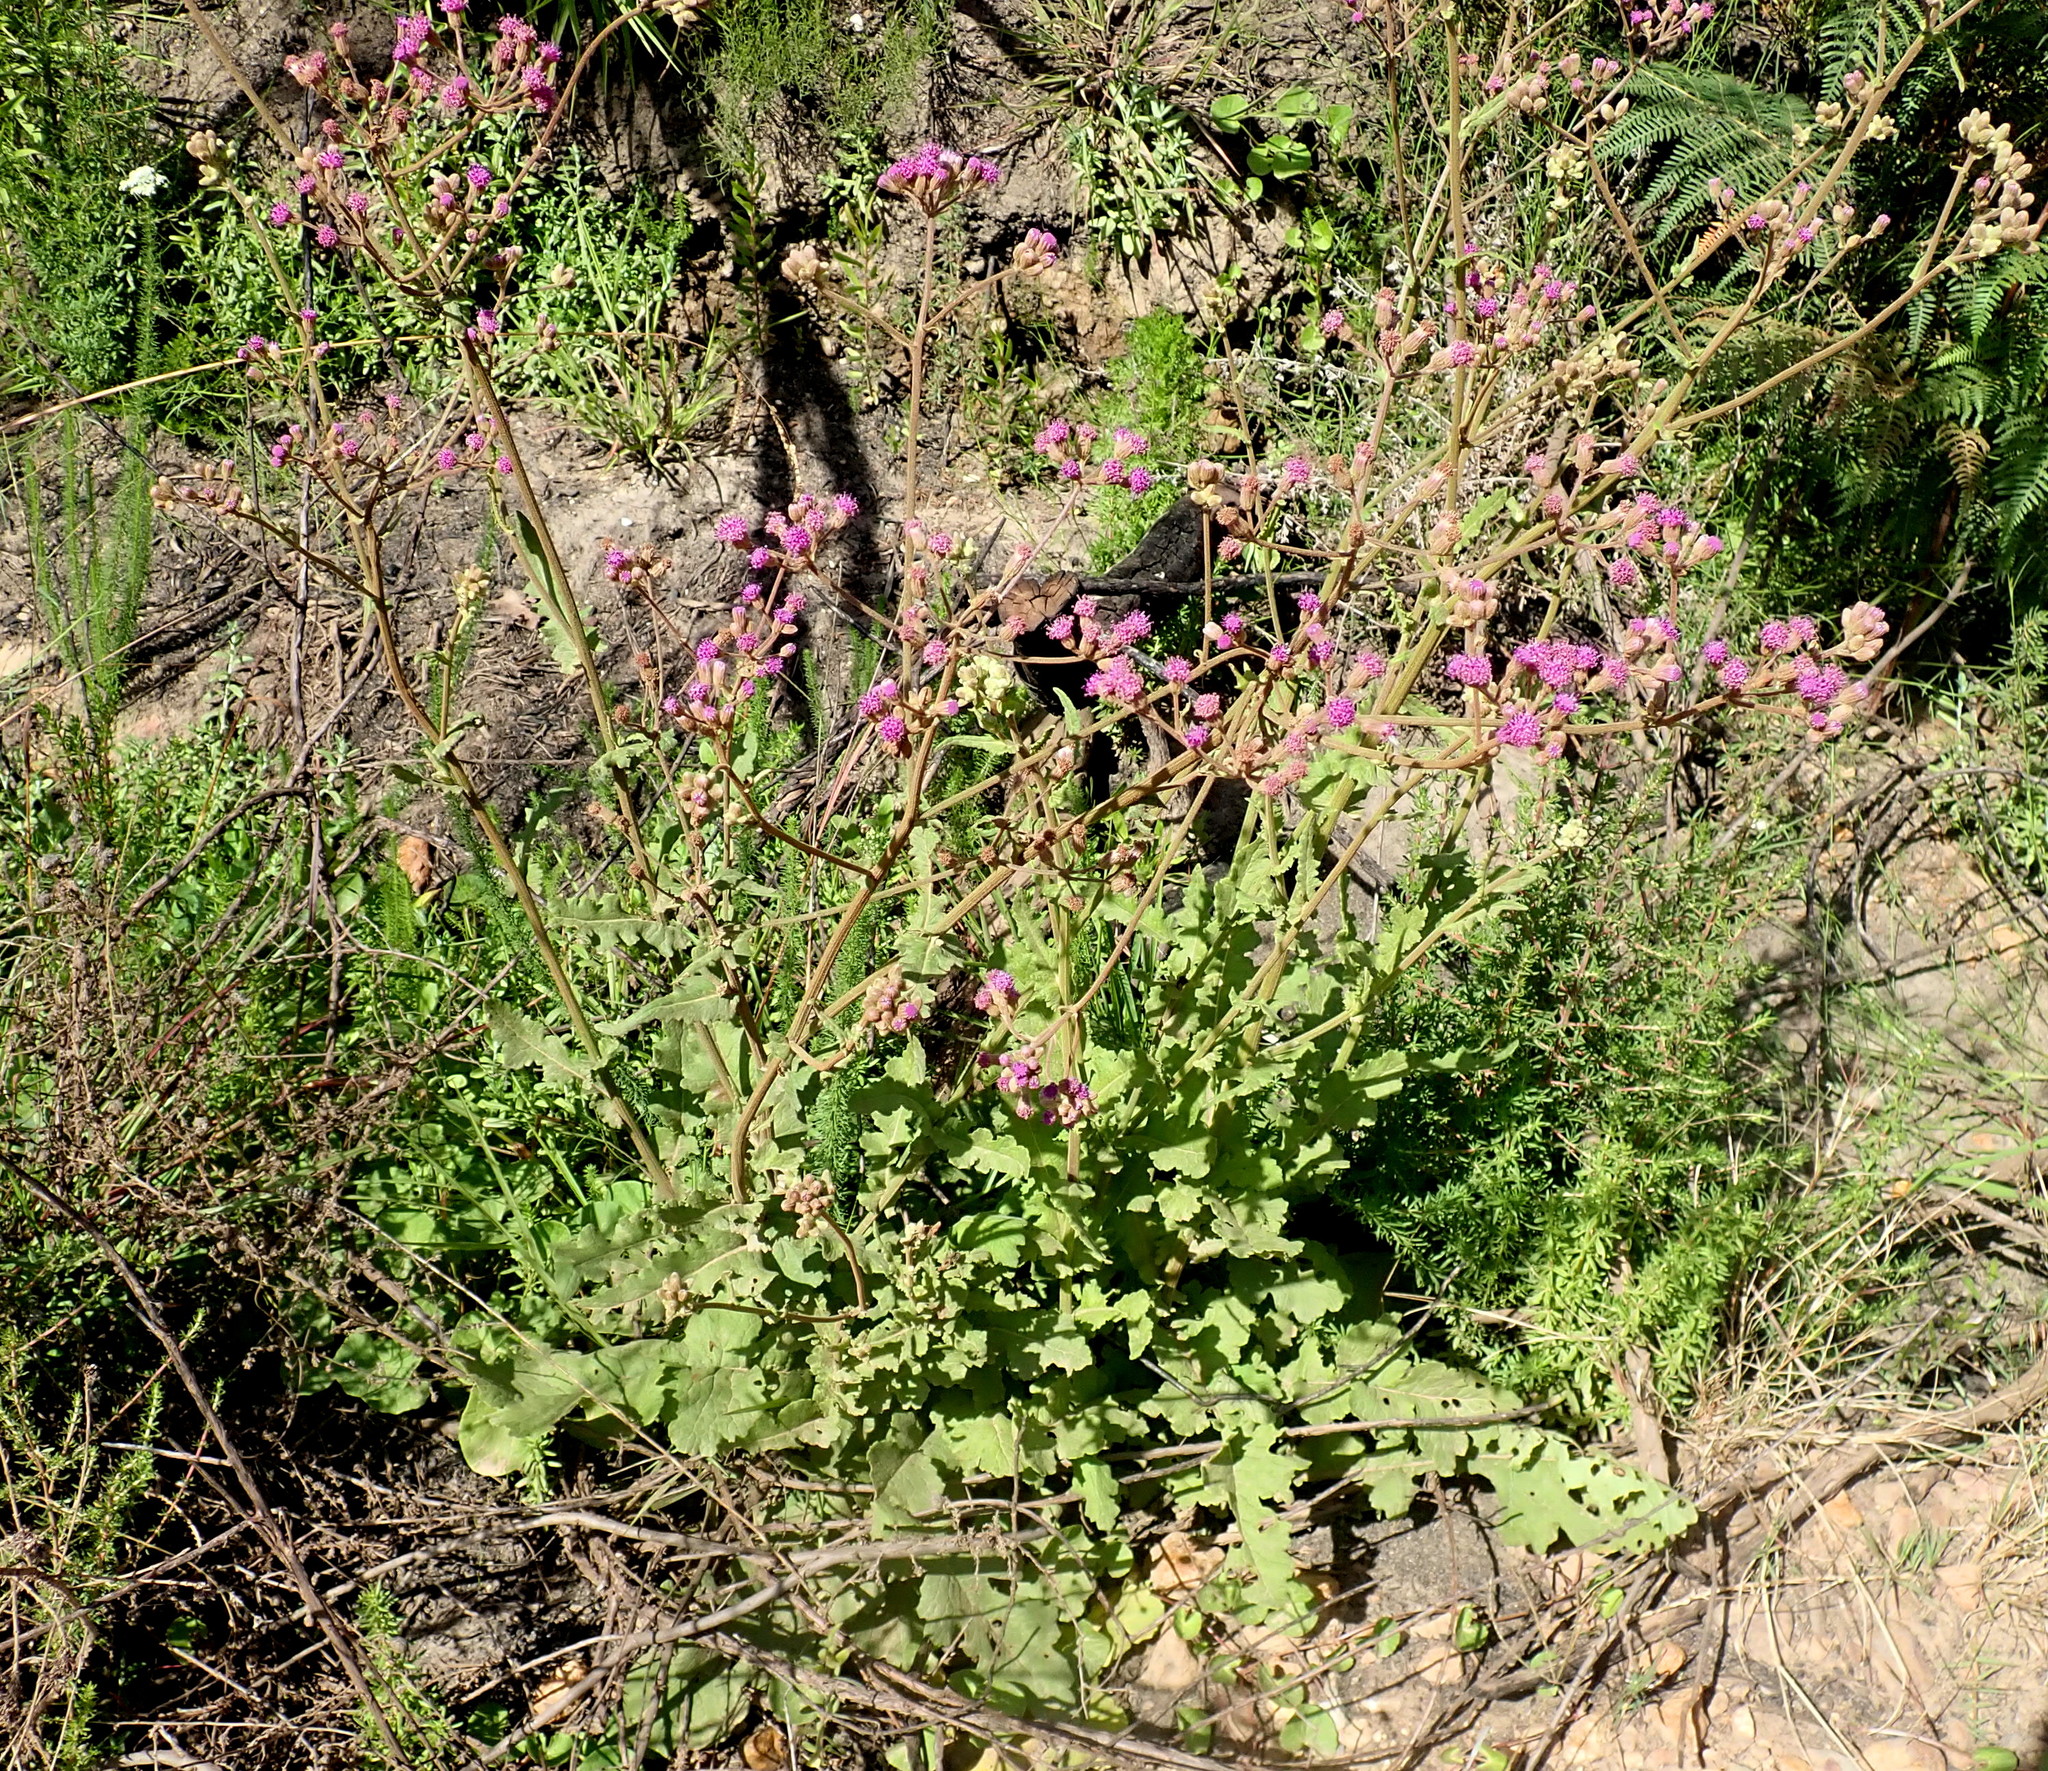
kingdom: Plantae
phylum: Tracheophyta
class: Magnoliopsida
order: Asterales
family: Asteraceae
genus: Senecio
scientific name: Senecio purpureus
